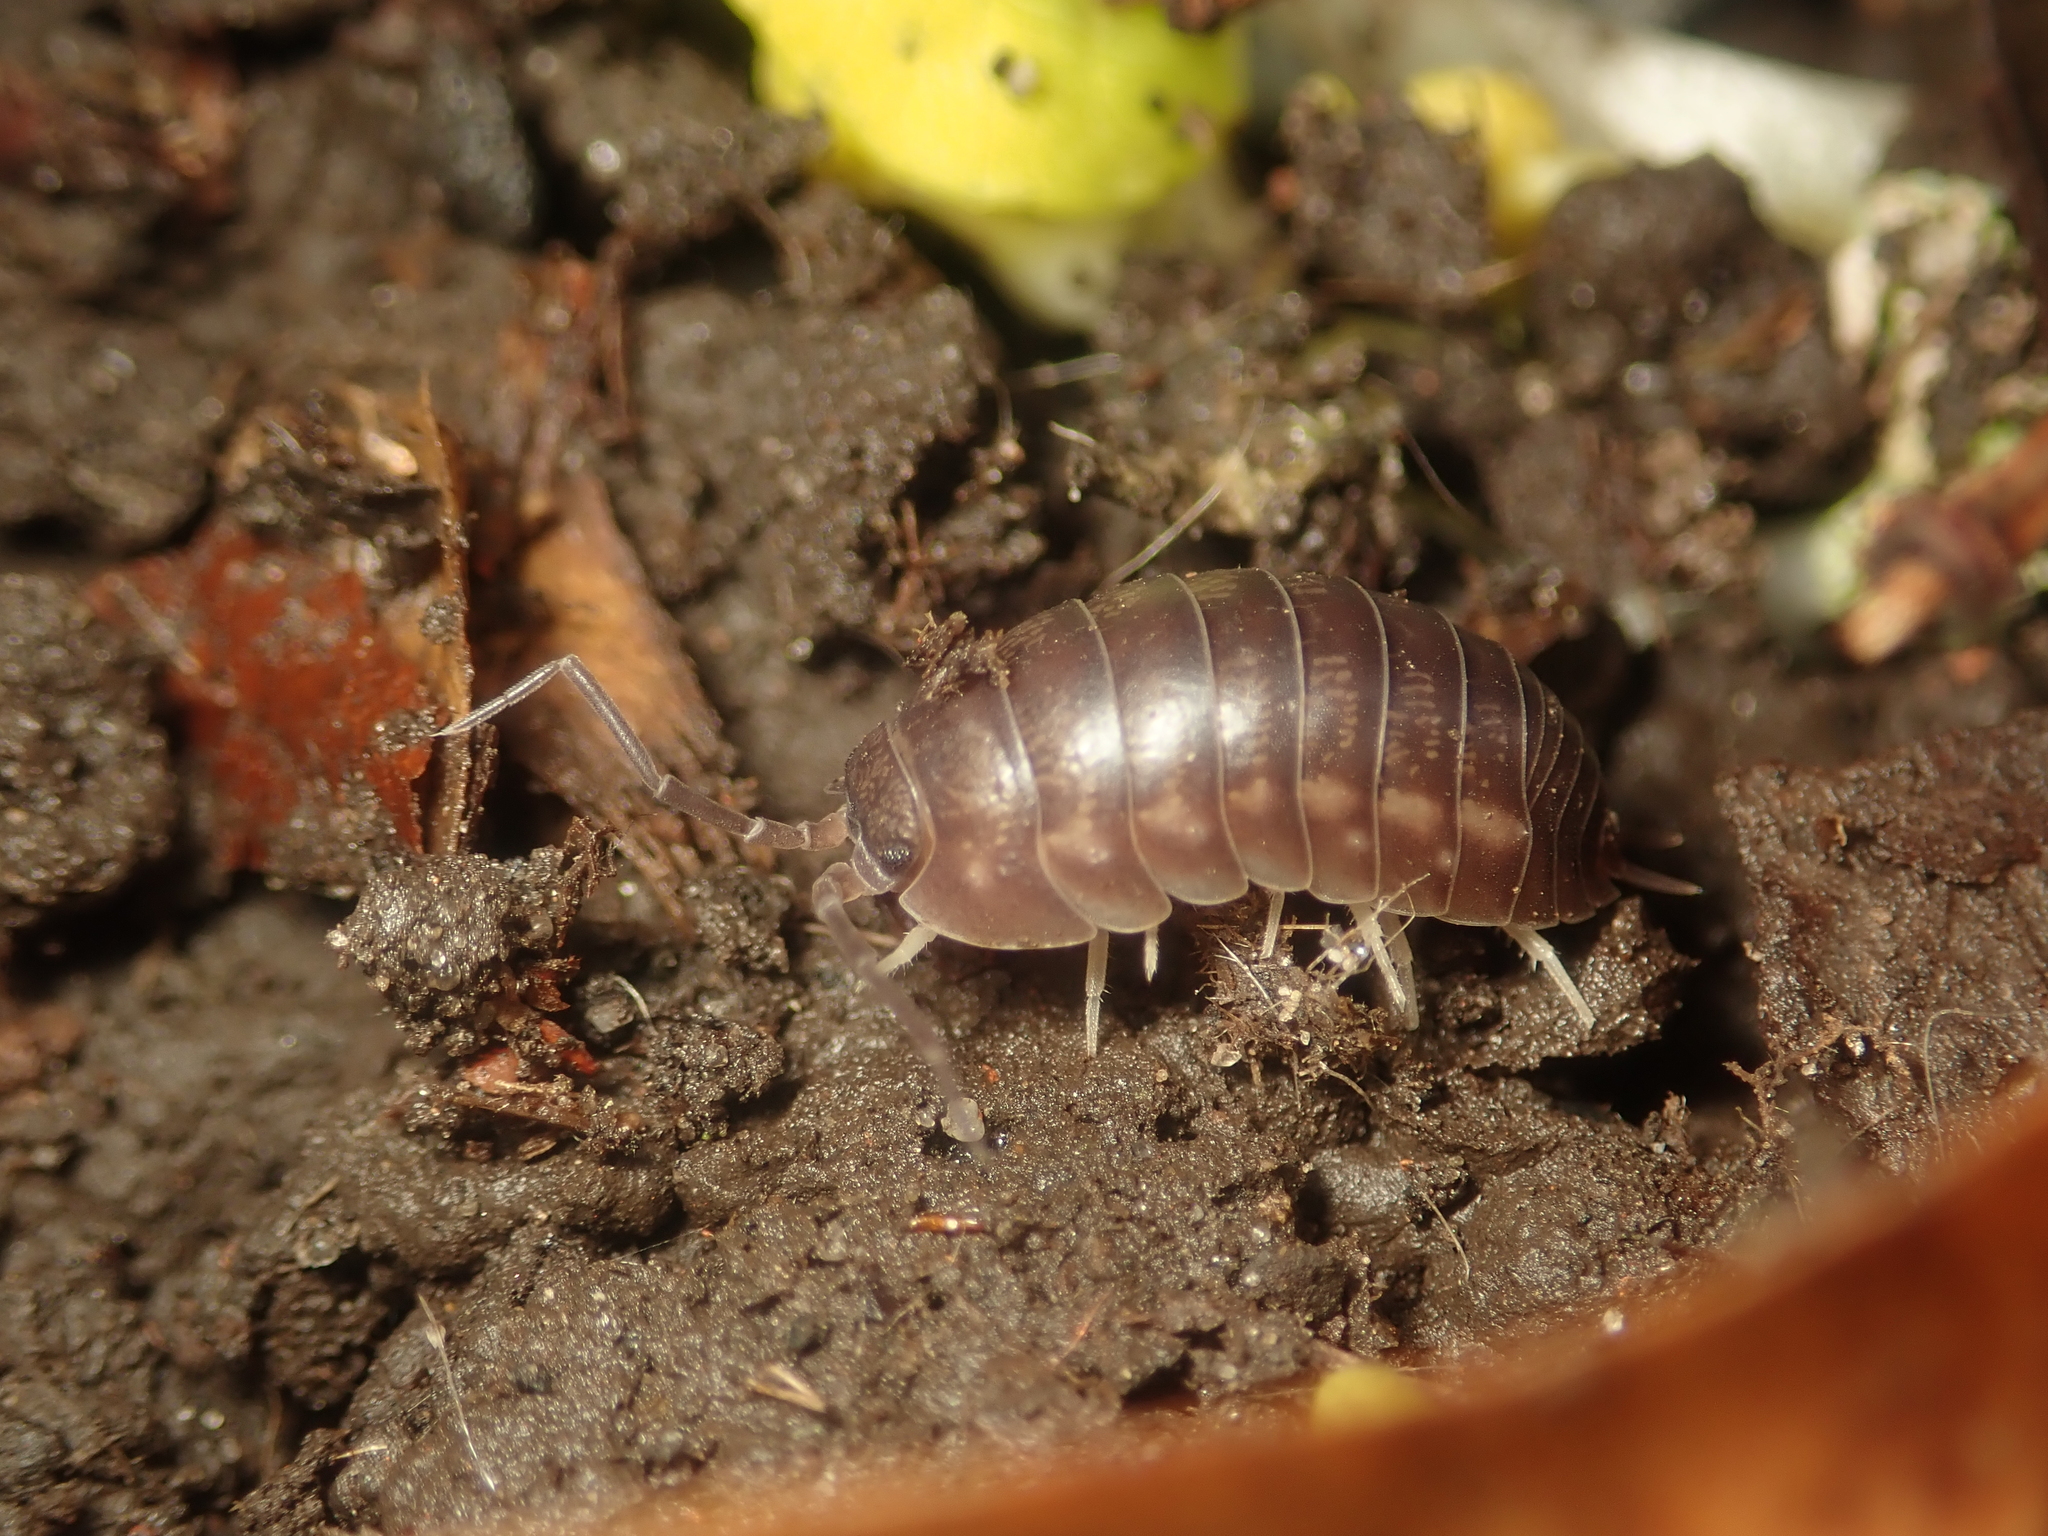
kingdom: Animalia
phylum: Arthropoda
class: Malacostraca
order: Isopoda
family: Cylisticidae
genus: Cylisticus
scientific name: Cylisticus convexus
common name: Curly woodlouse
